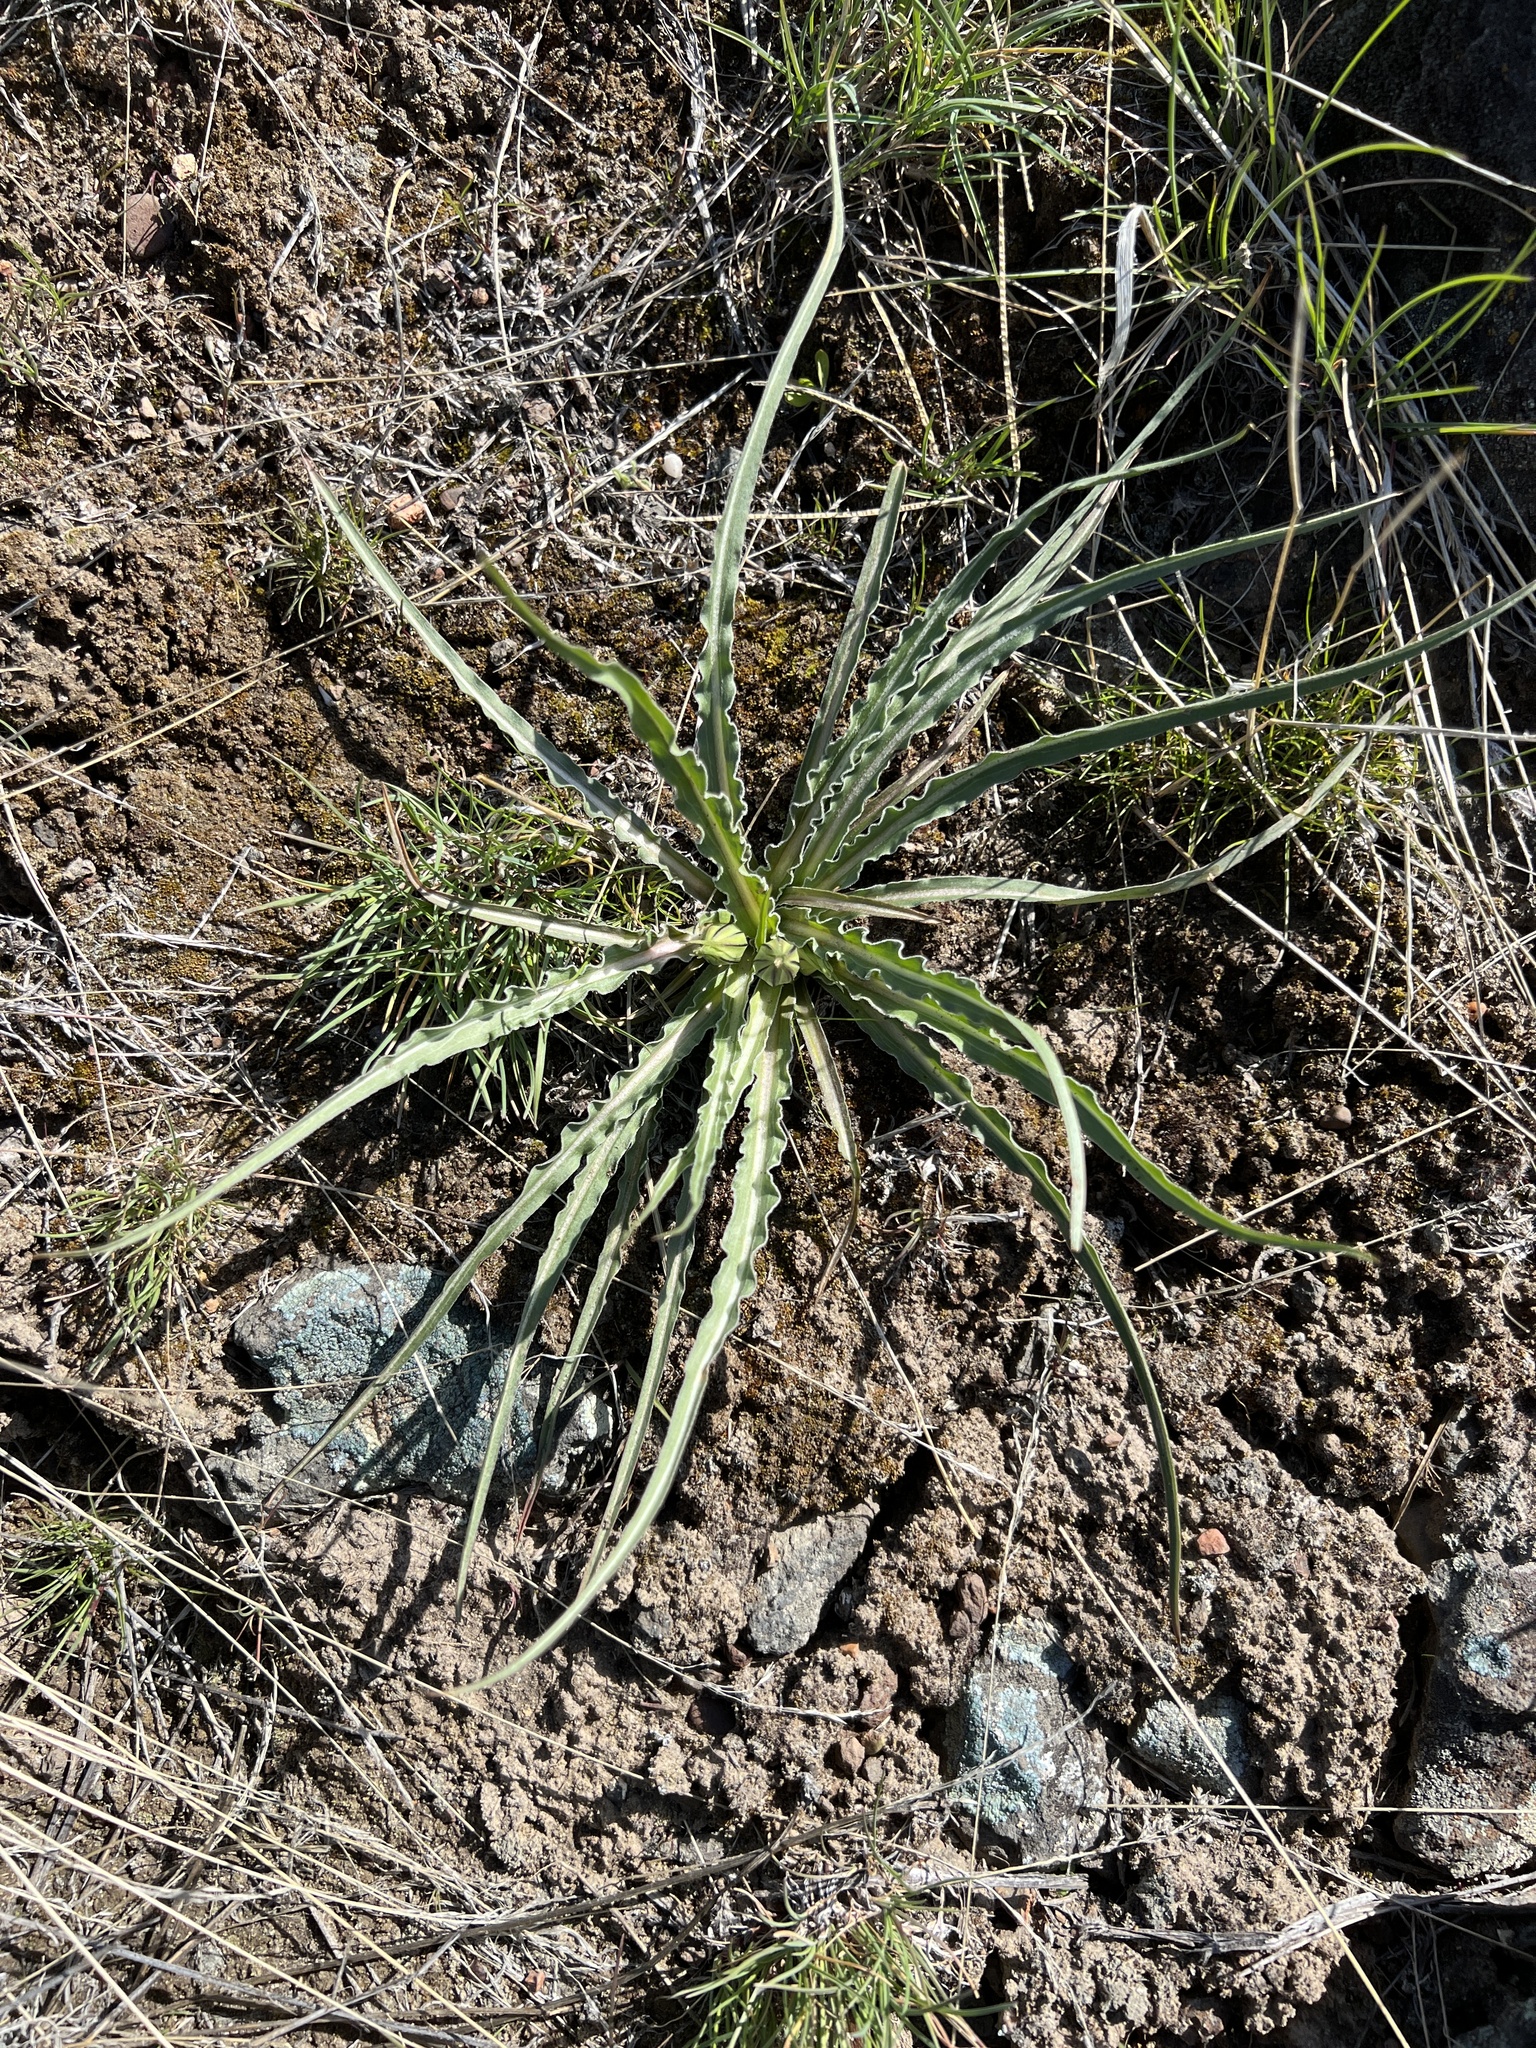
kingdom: Plantae
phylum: Tracheophyta
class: Magnoliopsida
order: Asterales
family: Asteraceae
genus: Microseris
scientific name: Microseris troximoides
